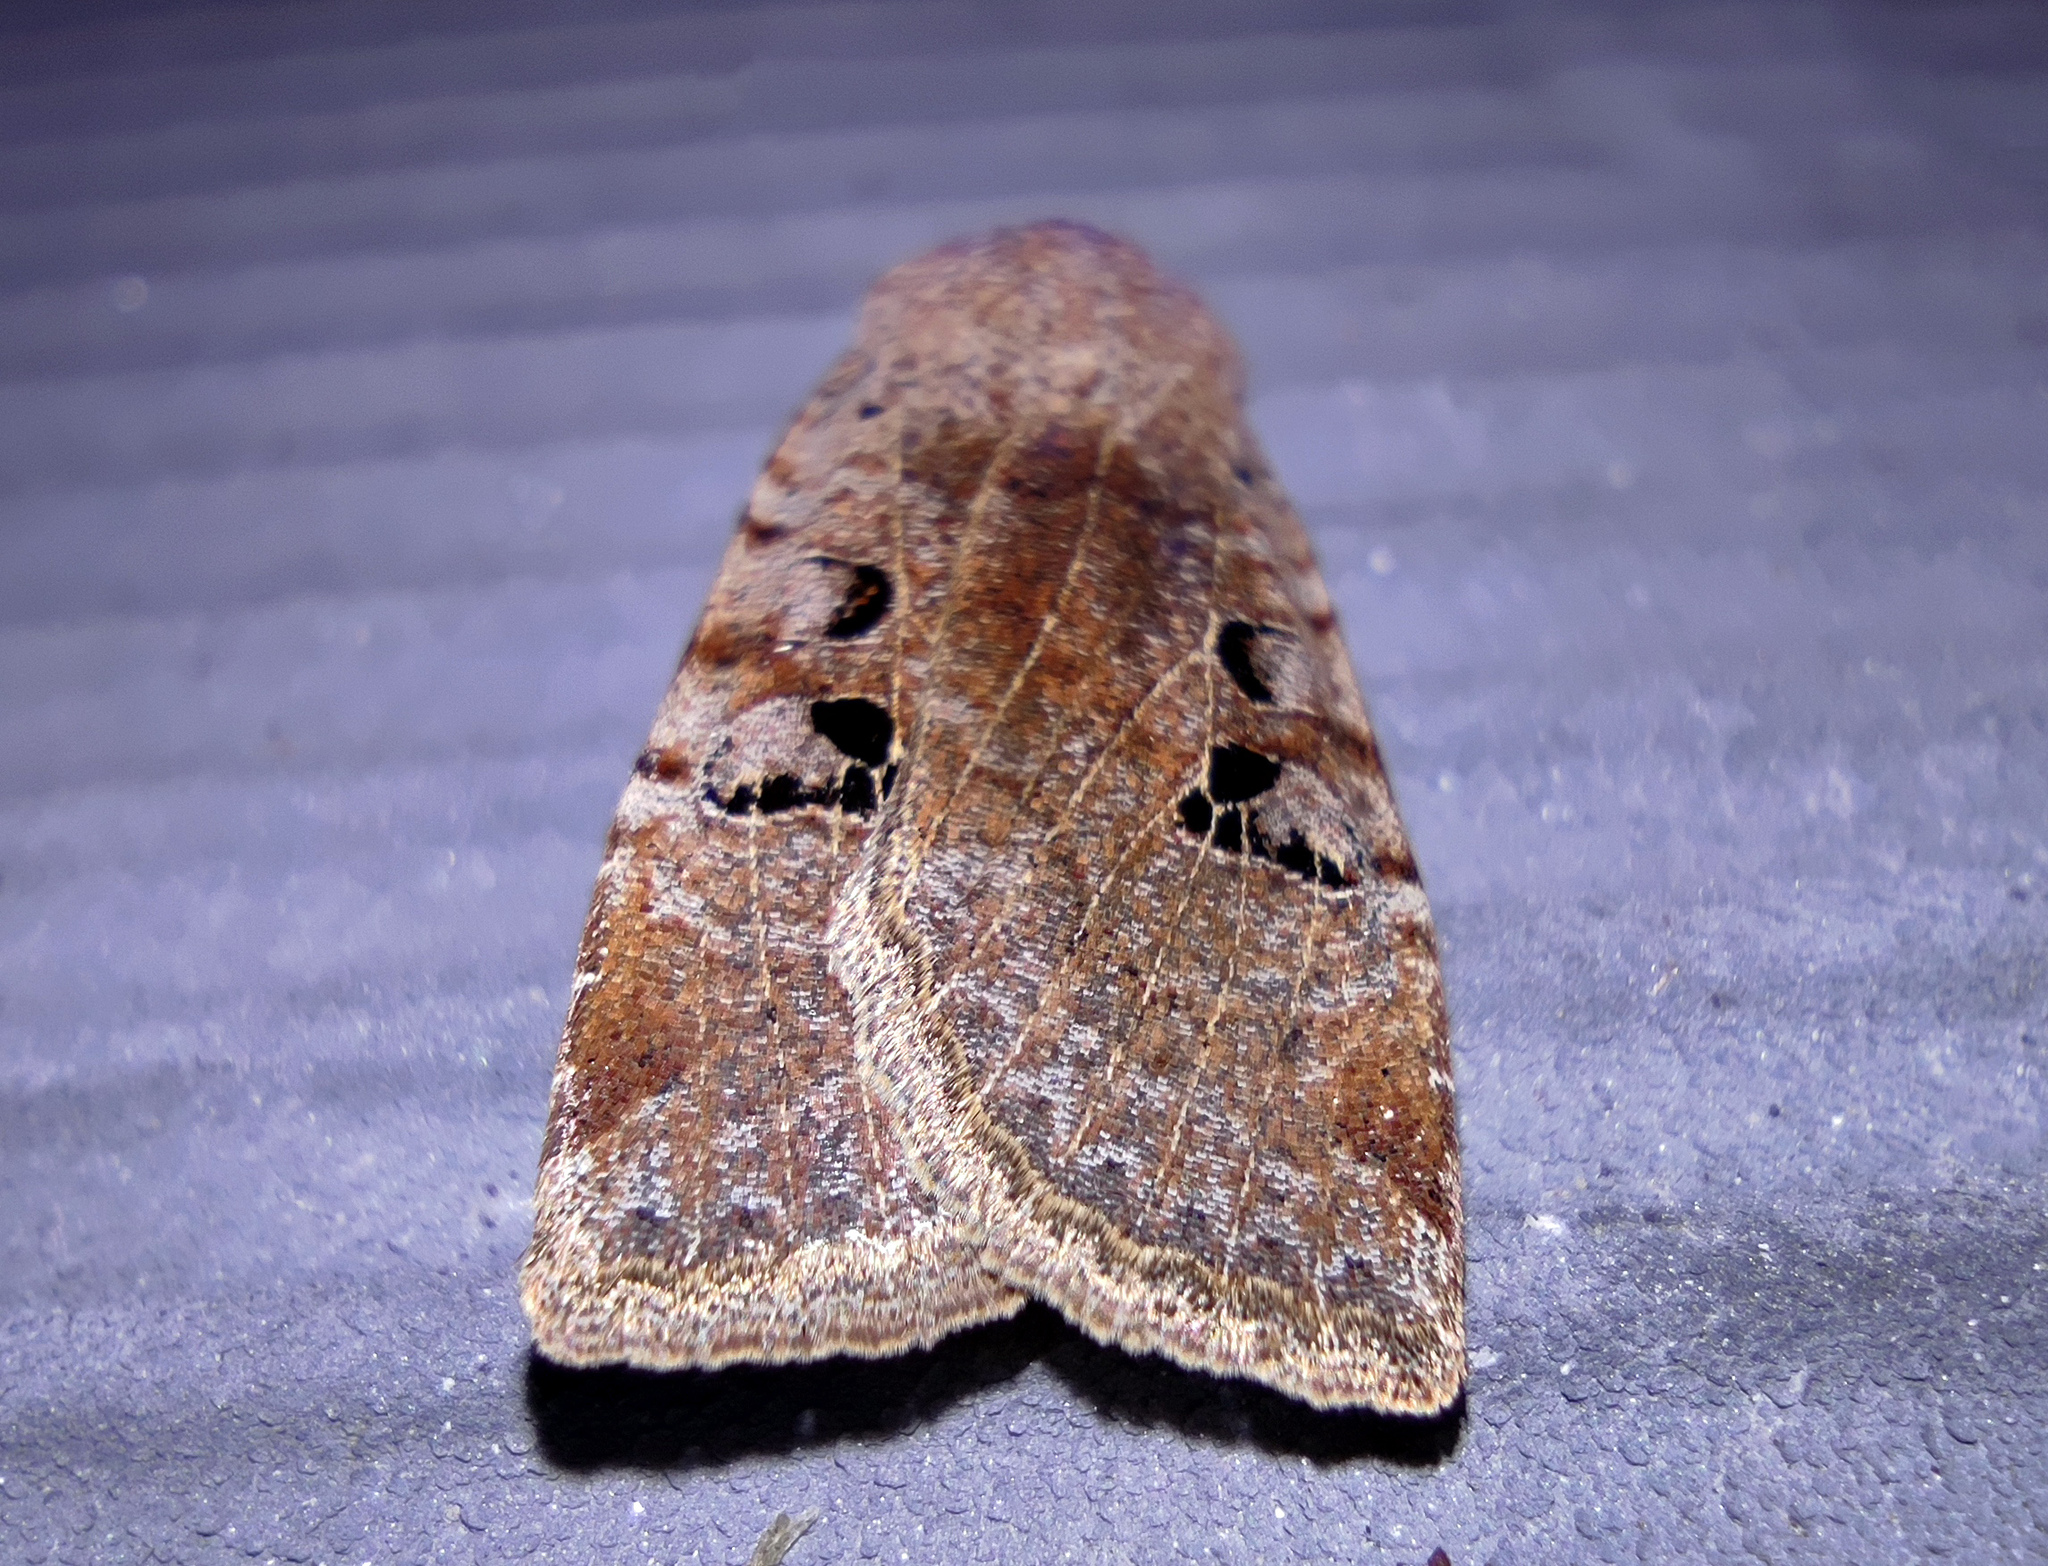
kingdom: Animalia
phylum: Arthropoda
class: Insecta
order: Lepidoptera
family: Noctuidae
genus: Conistra
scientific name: Conistra rubiginosa
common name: Black-spotted chestnut
